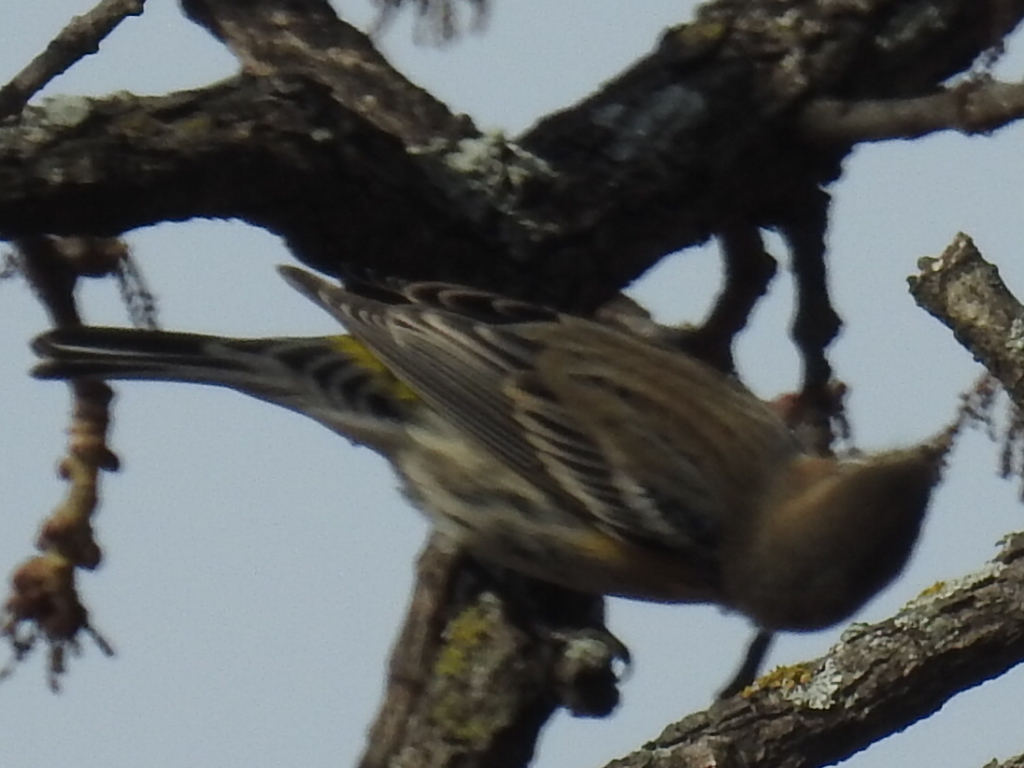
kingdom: Animalia
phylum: Chordata
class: Aves
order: Passeriformes
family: Parulidae
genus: Setophaga
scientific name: Setophaga coronata
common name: Myrtle warbler
